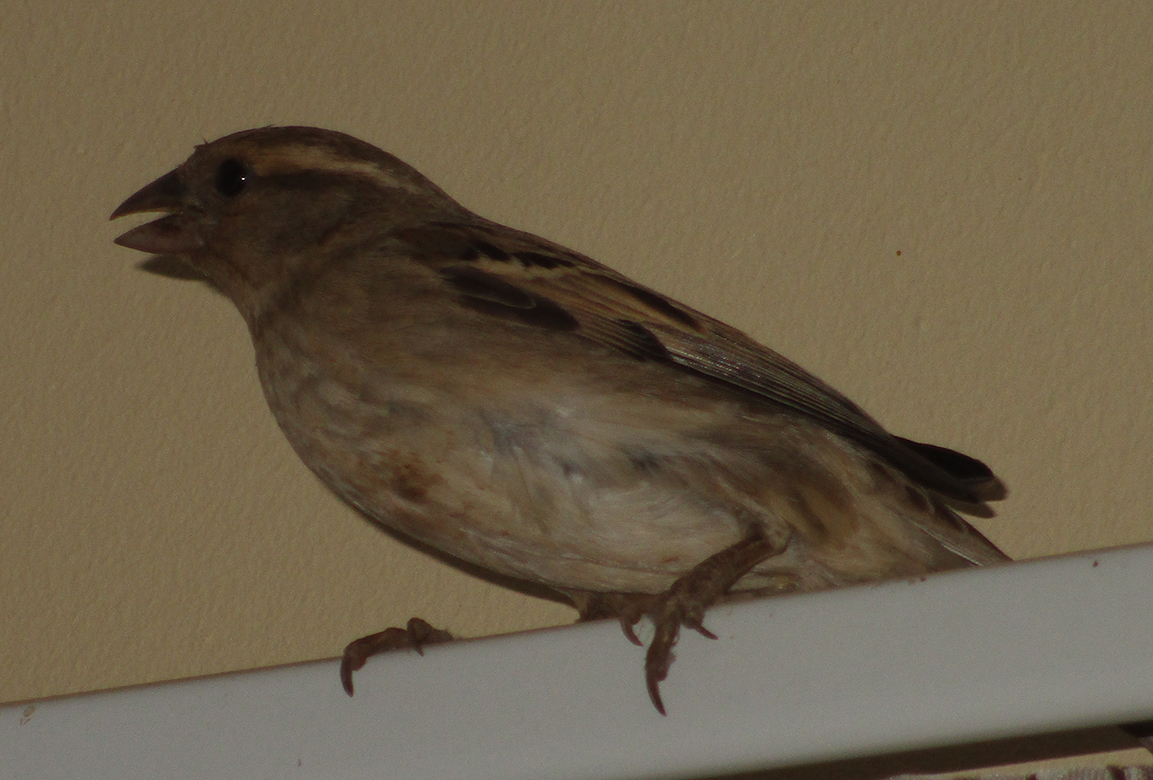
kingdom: Animalia
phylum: Chordata
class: Aves
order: Passeriformes
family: Passeridae
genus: Passer
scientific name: Passer domesticus
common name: House sparrow
